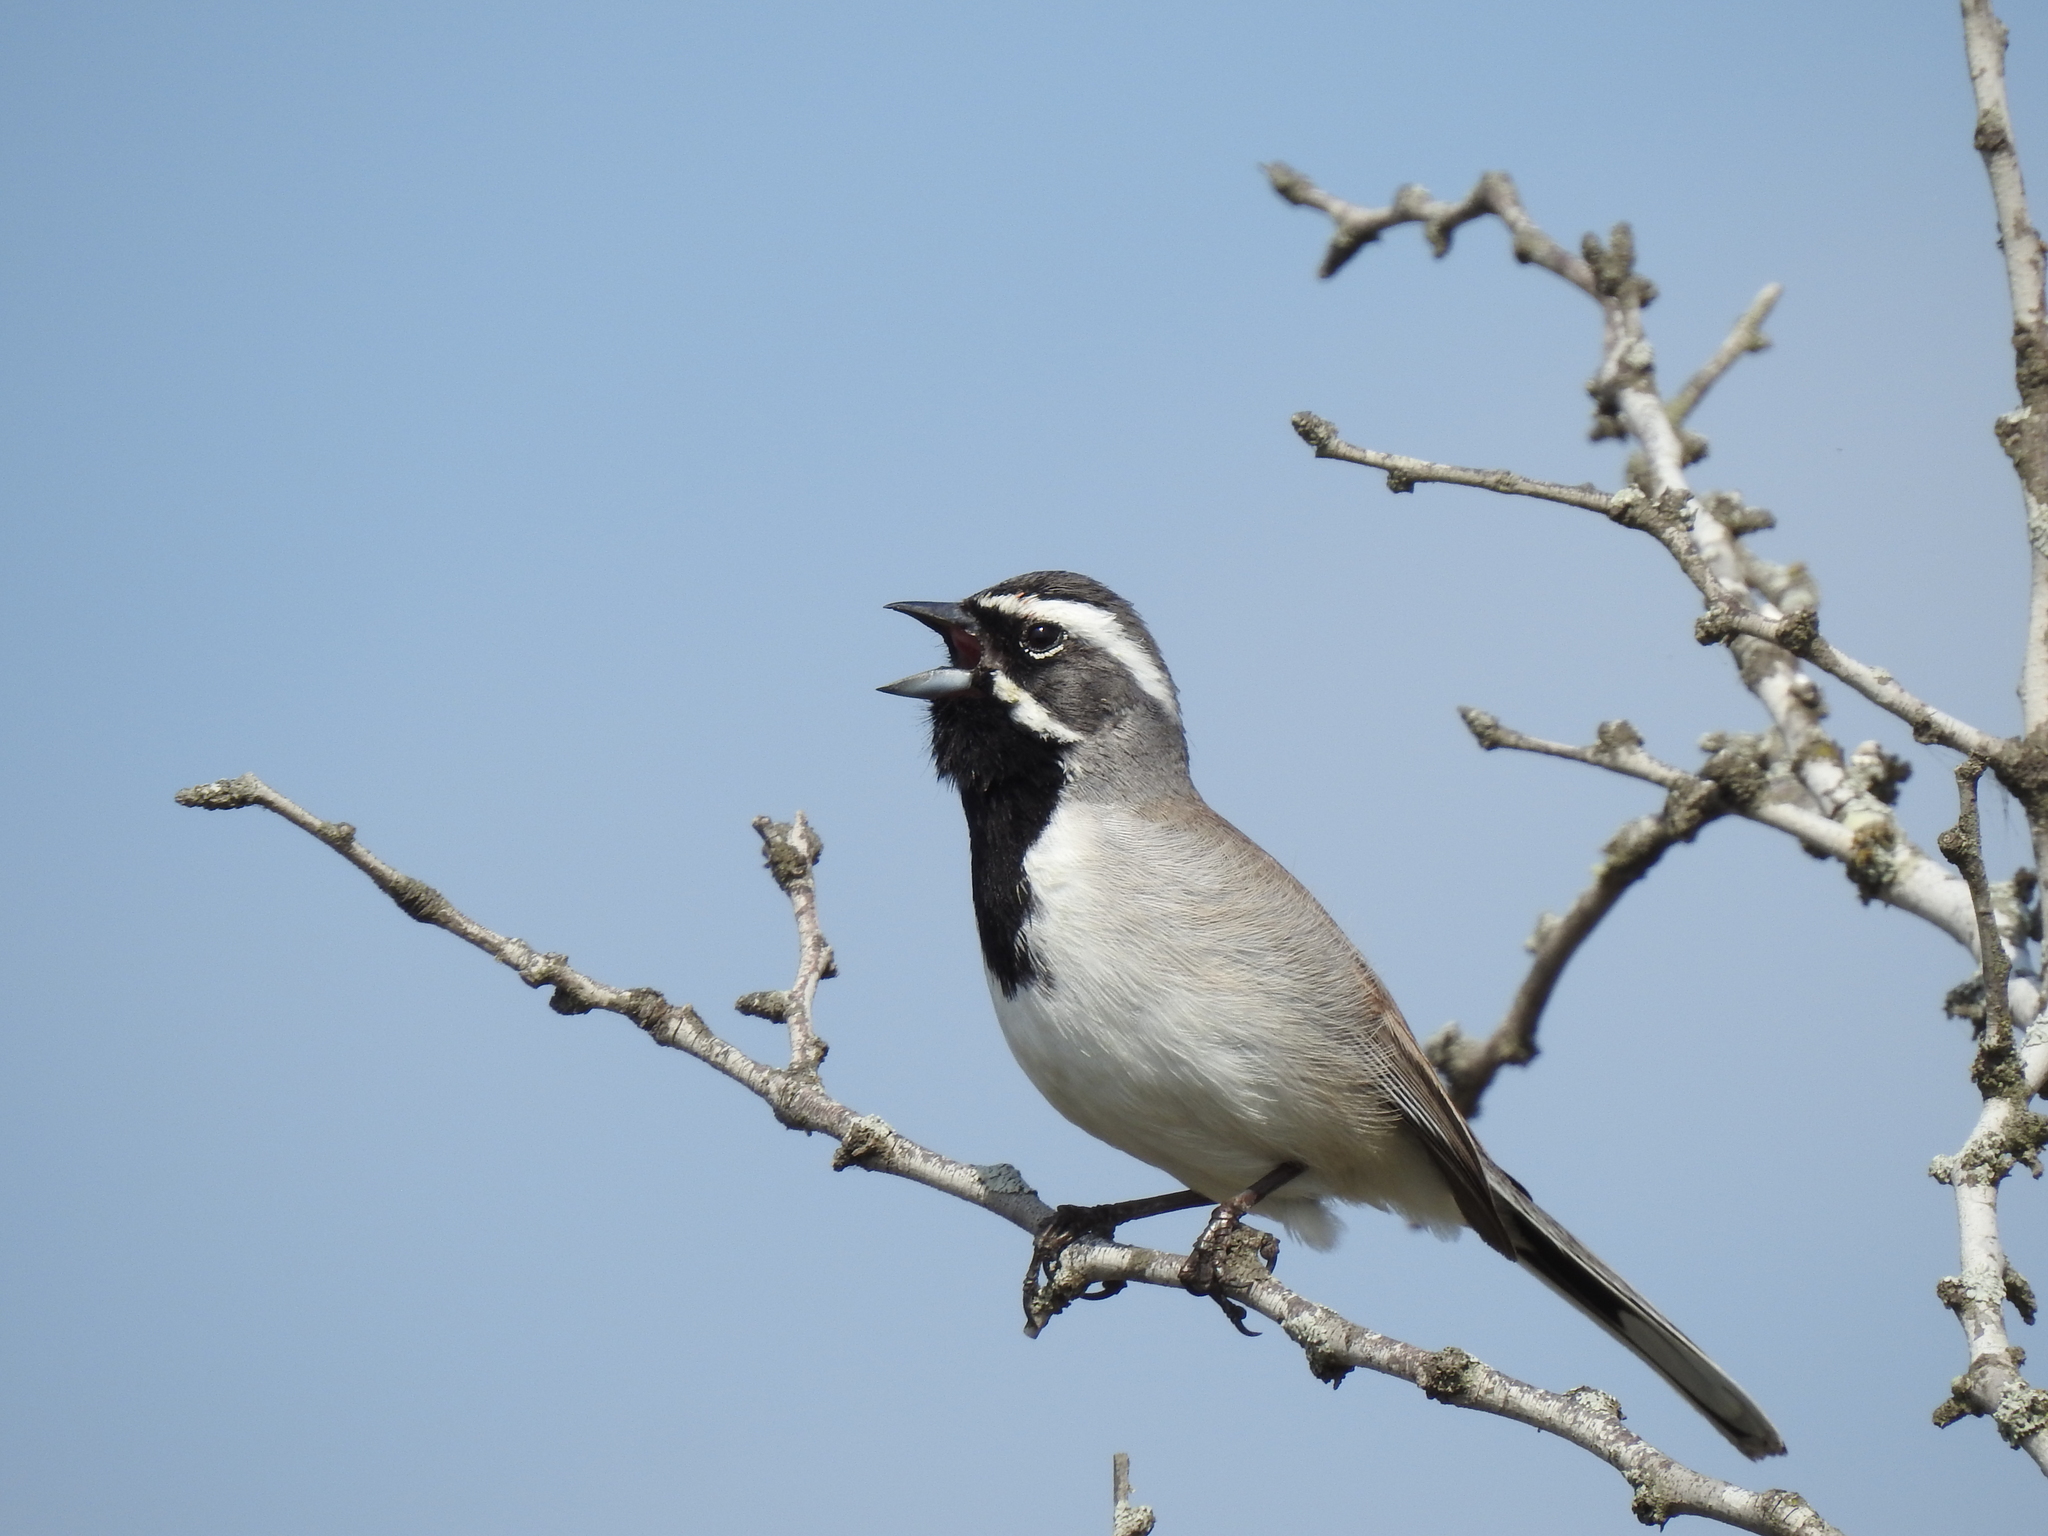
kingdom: Animalia
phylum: Chordata
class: Aves
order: Passeriformes
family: Passerellidae
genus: Amphispiza
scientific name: Amphispiza bilineata
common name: Black-throated sparrow
